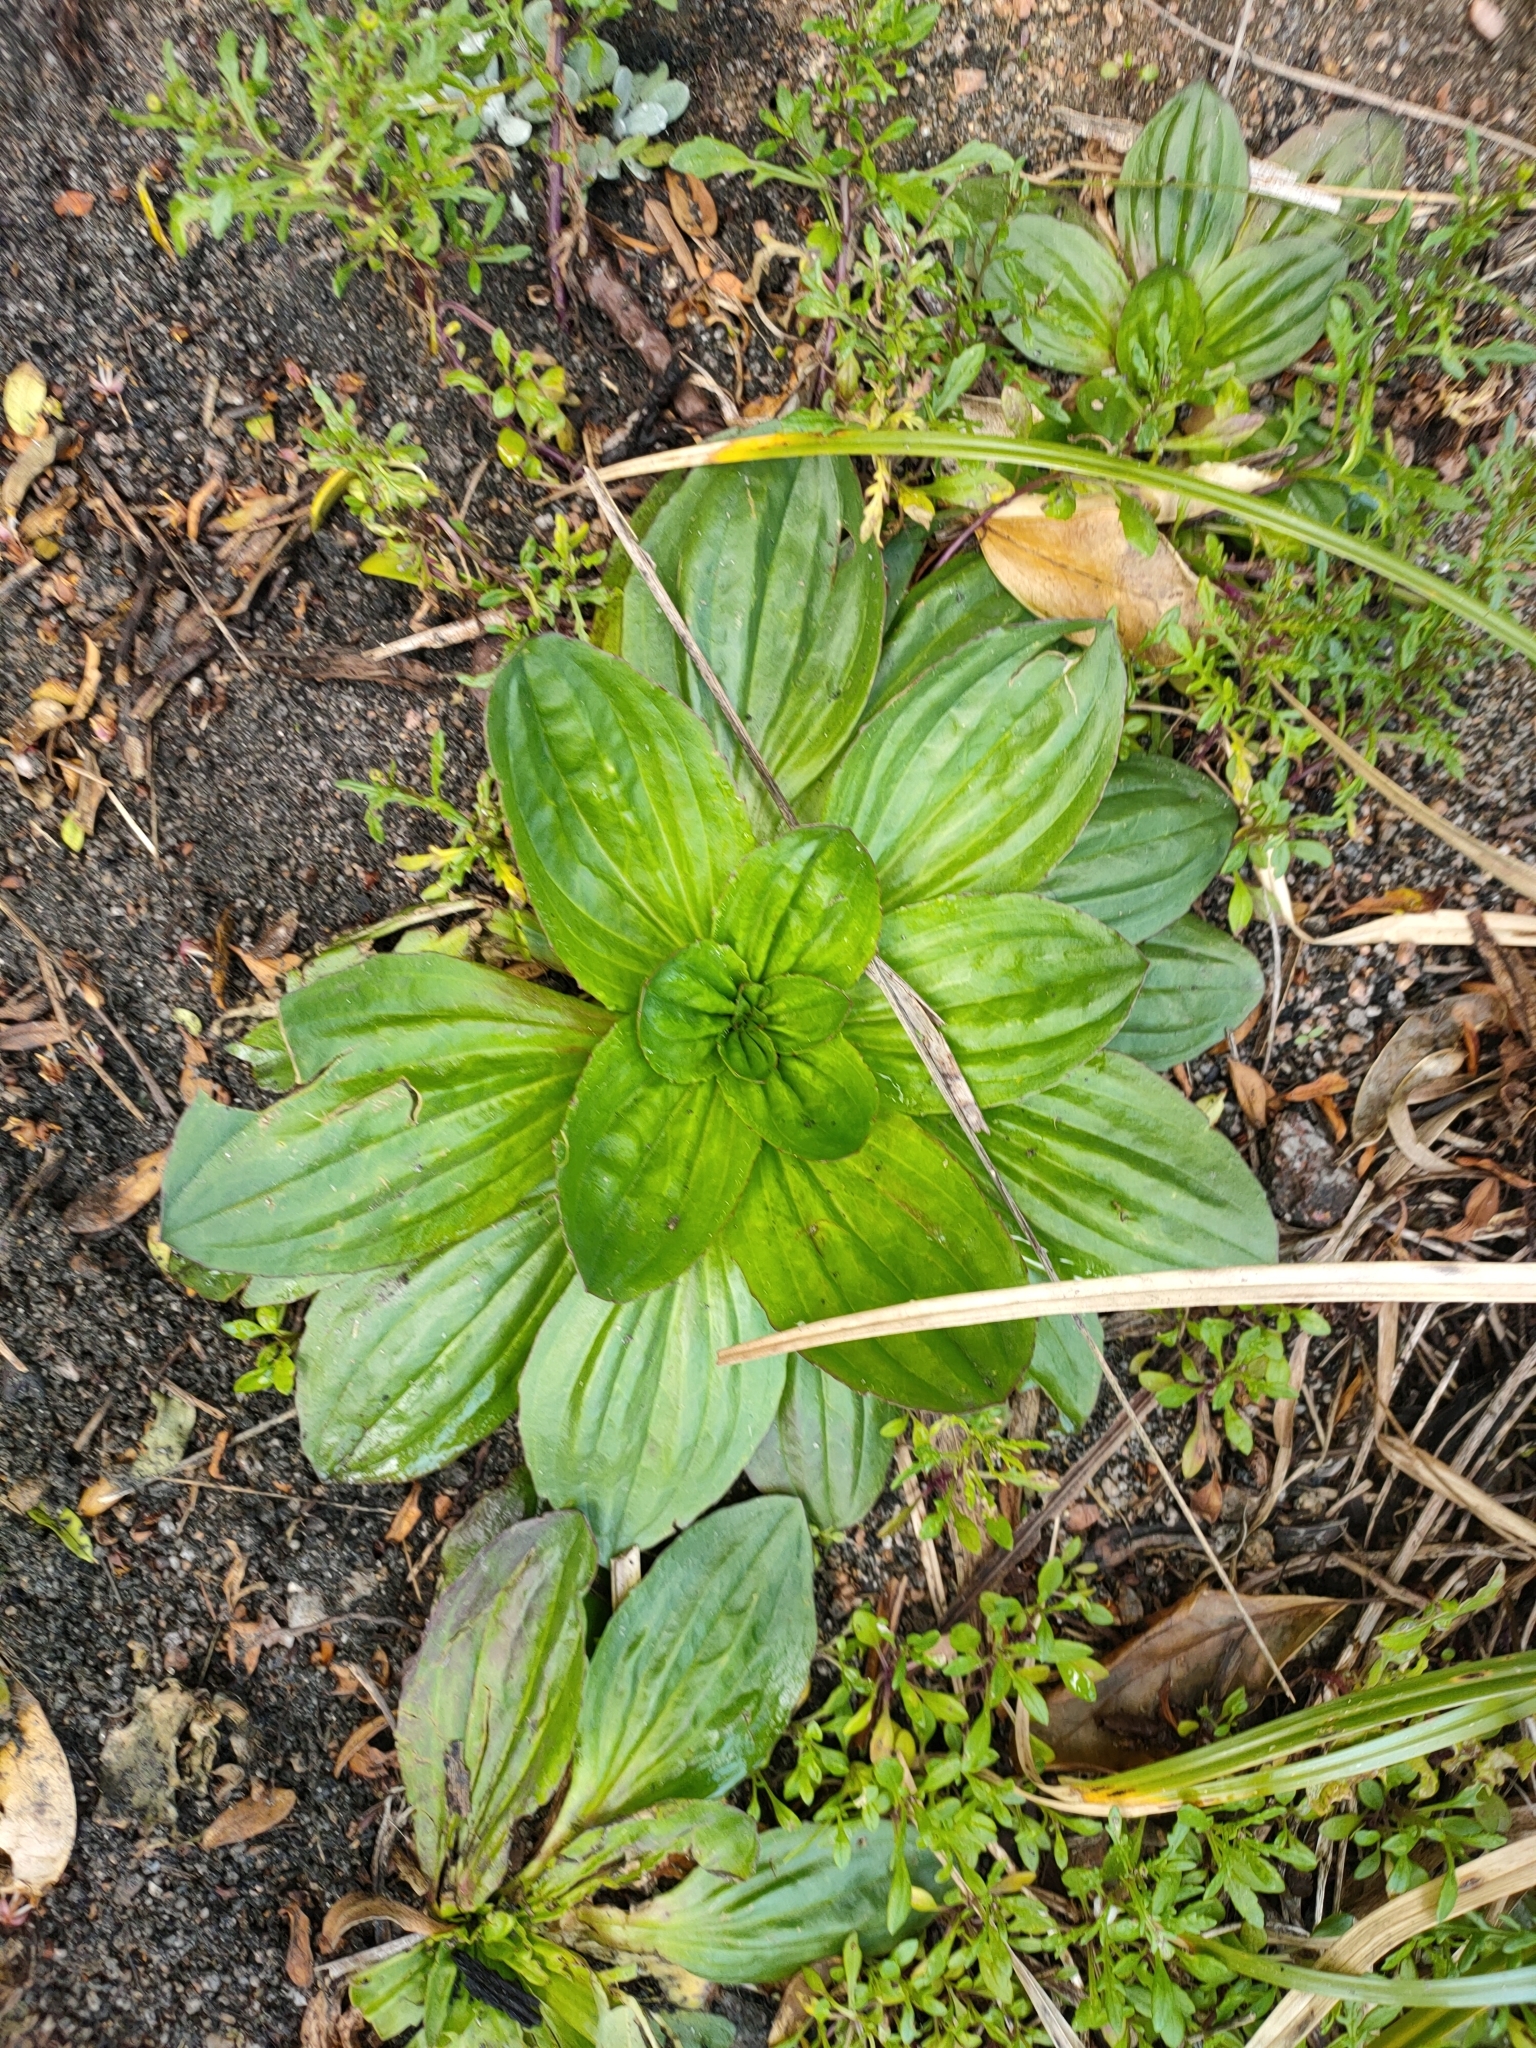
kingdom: Plantae
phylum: Tracheophyta
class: Magnoliopsida
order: Lamiales
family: Plantaginaceae
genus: Plantago
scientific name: Plantago australis
